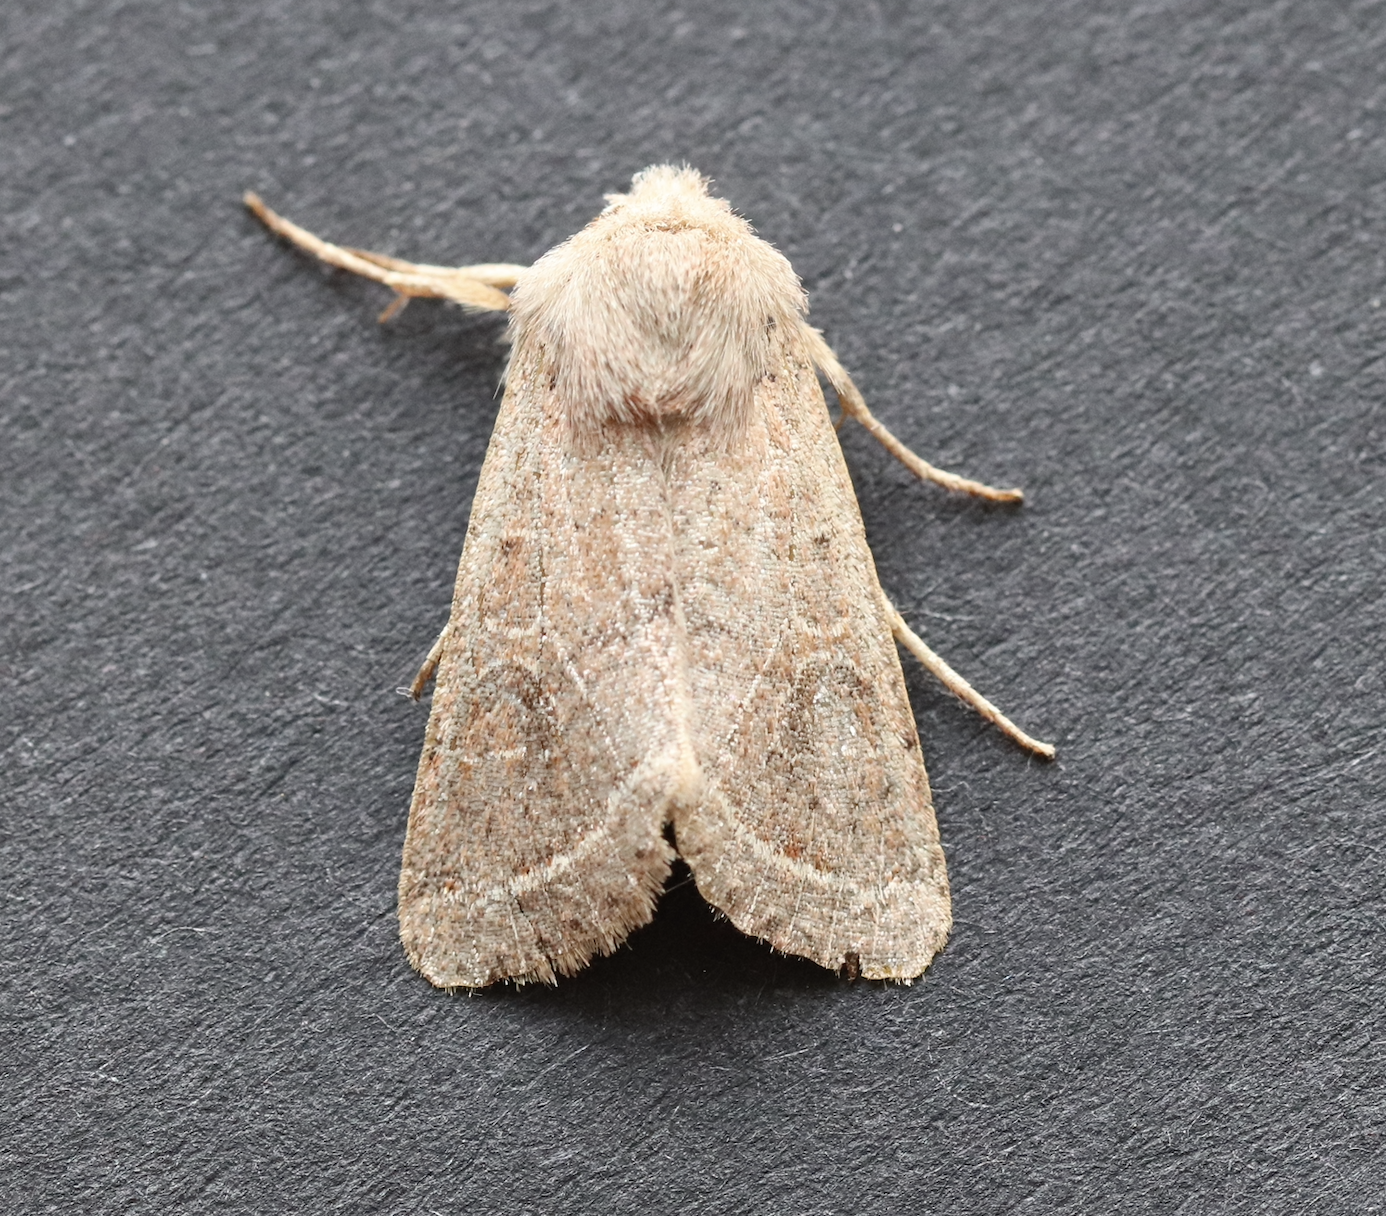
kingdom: Animalia
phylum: Arthropoda
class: Insecta
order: Lepidoptera
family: Noctuidae
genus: Orthosia
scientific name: Orthosia cerasi
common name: Common quaker
